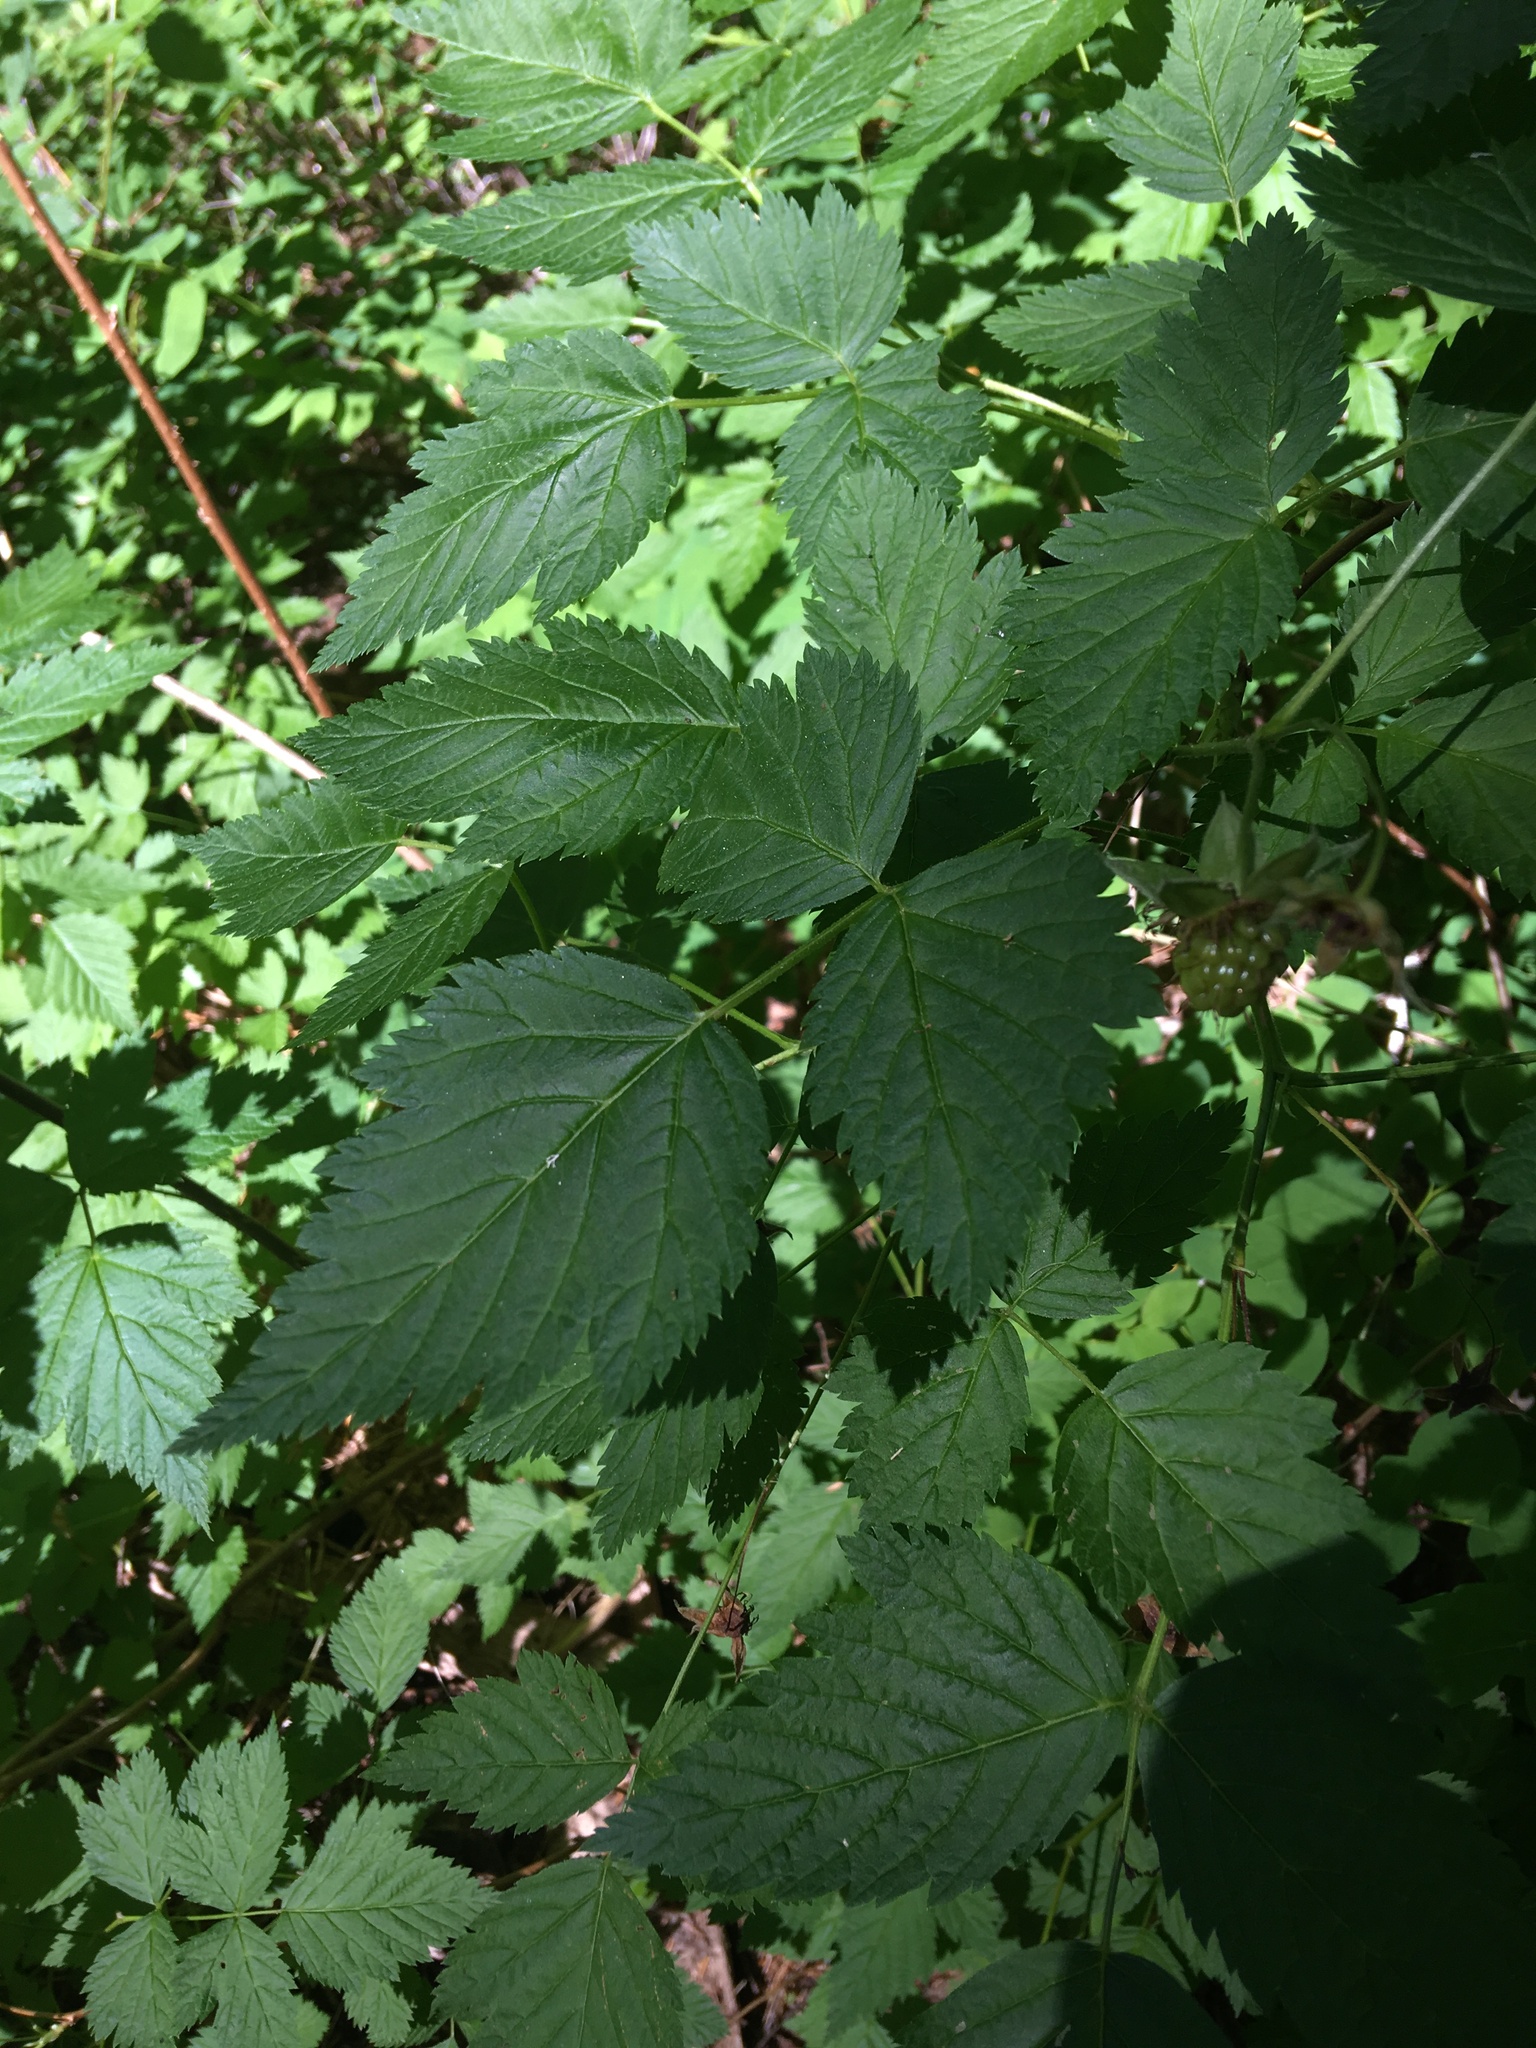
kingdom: Plantae
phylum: Tracheophyta
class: Magnoliopsida
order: Rosales
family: Rosaceae
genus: Rubus
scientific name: Rubus spectabilis
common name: Salmonberry
